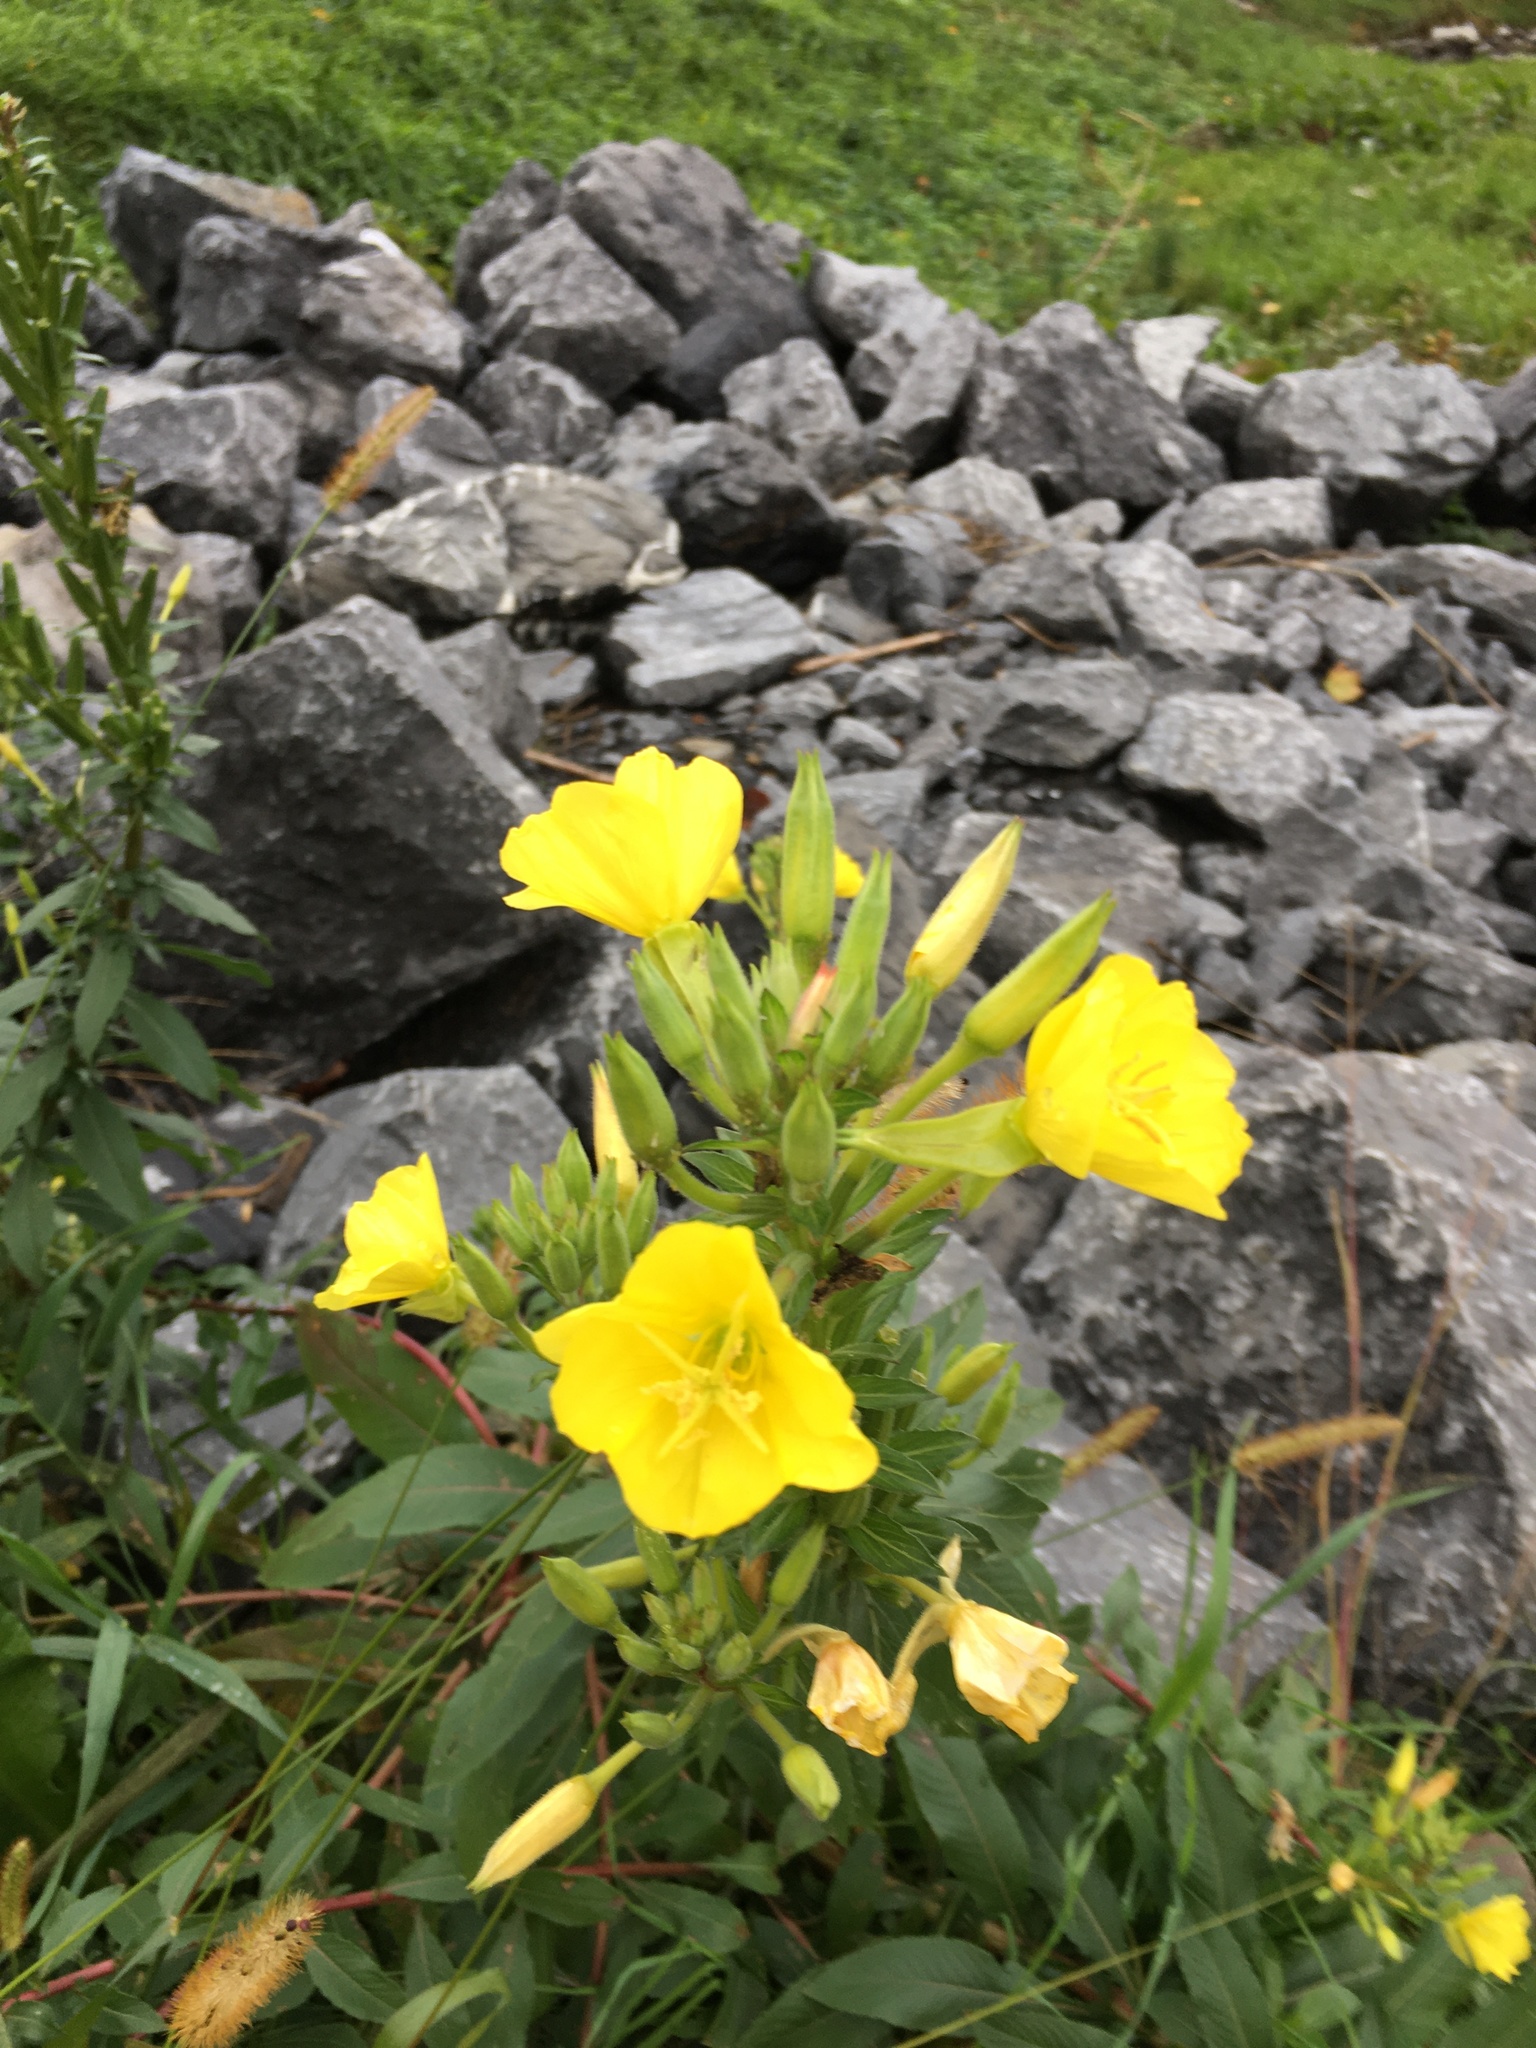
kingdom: Plantae
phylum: Tracheophyta
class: Magnoliopsida
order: Myrtales
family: Onagraceae
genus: Oenothera
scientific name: Oenothera biennis
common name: Common evening-primrose
